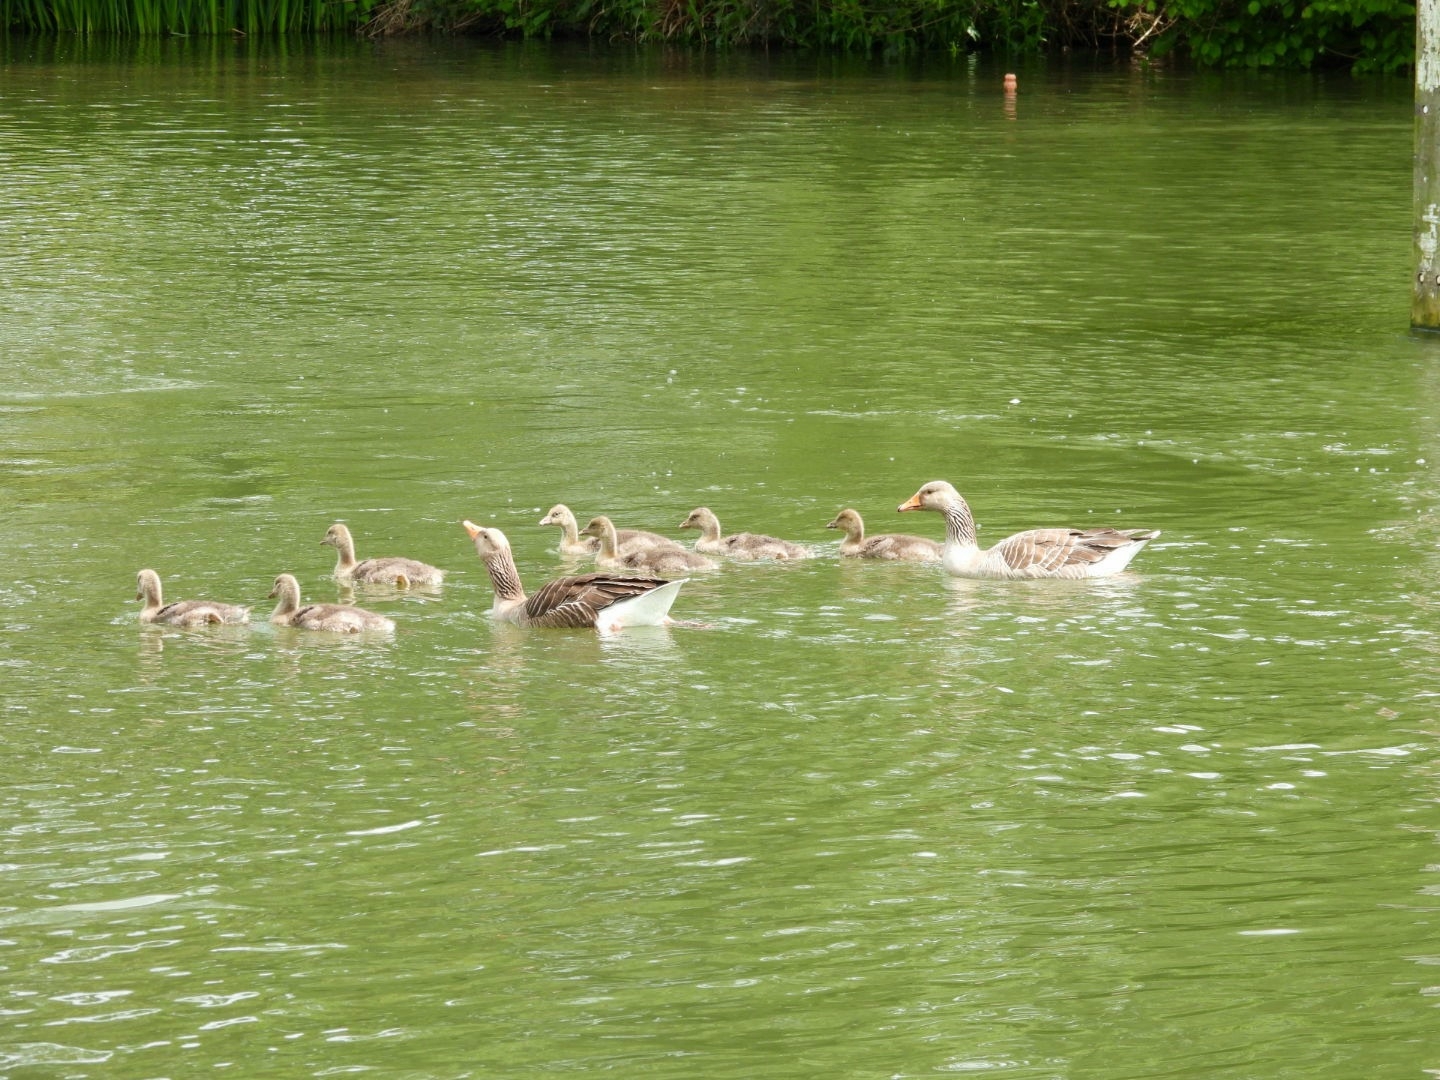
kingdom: Animalia
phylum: Chordata
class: Aves
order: Anseriformes
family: Anatidae
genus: Anser
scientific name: Anser anser
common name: Greylag goose
